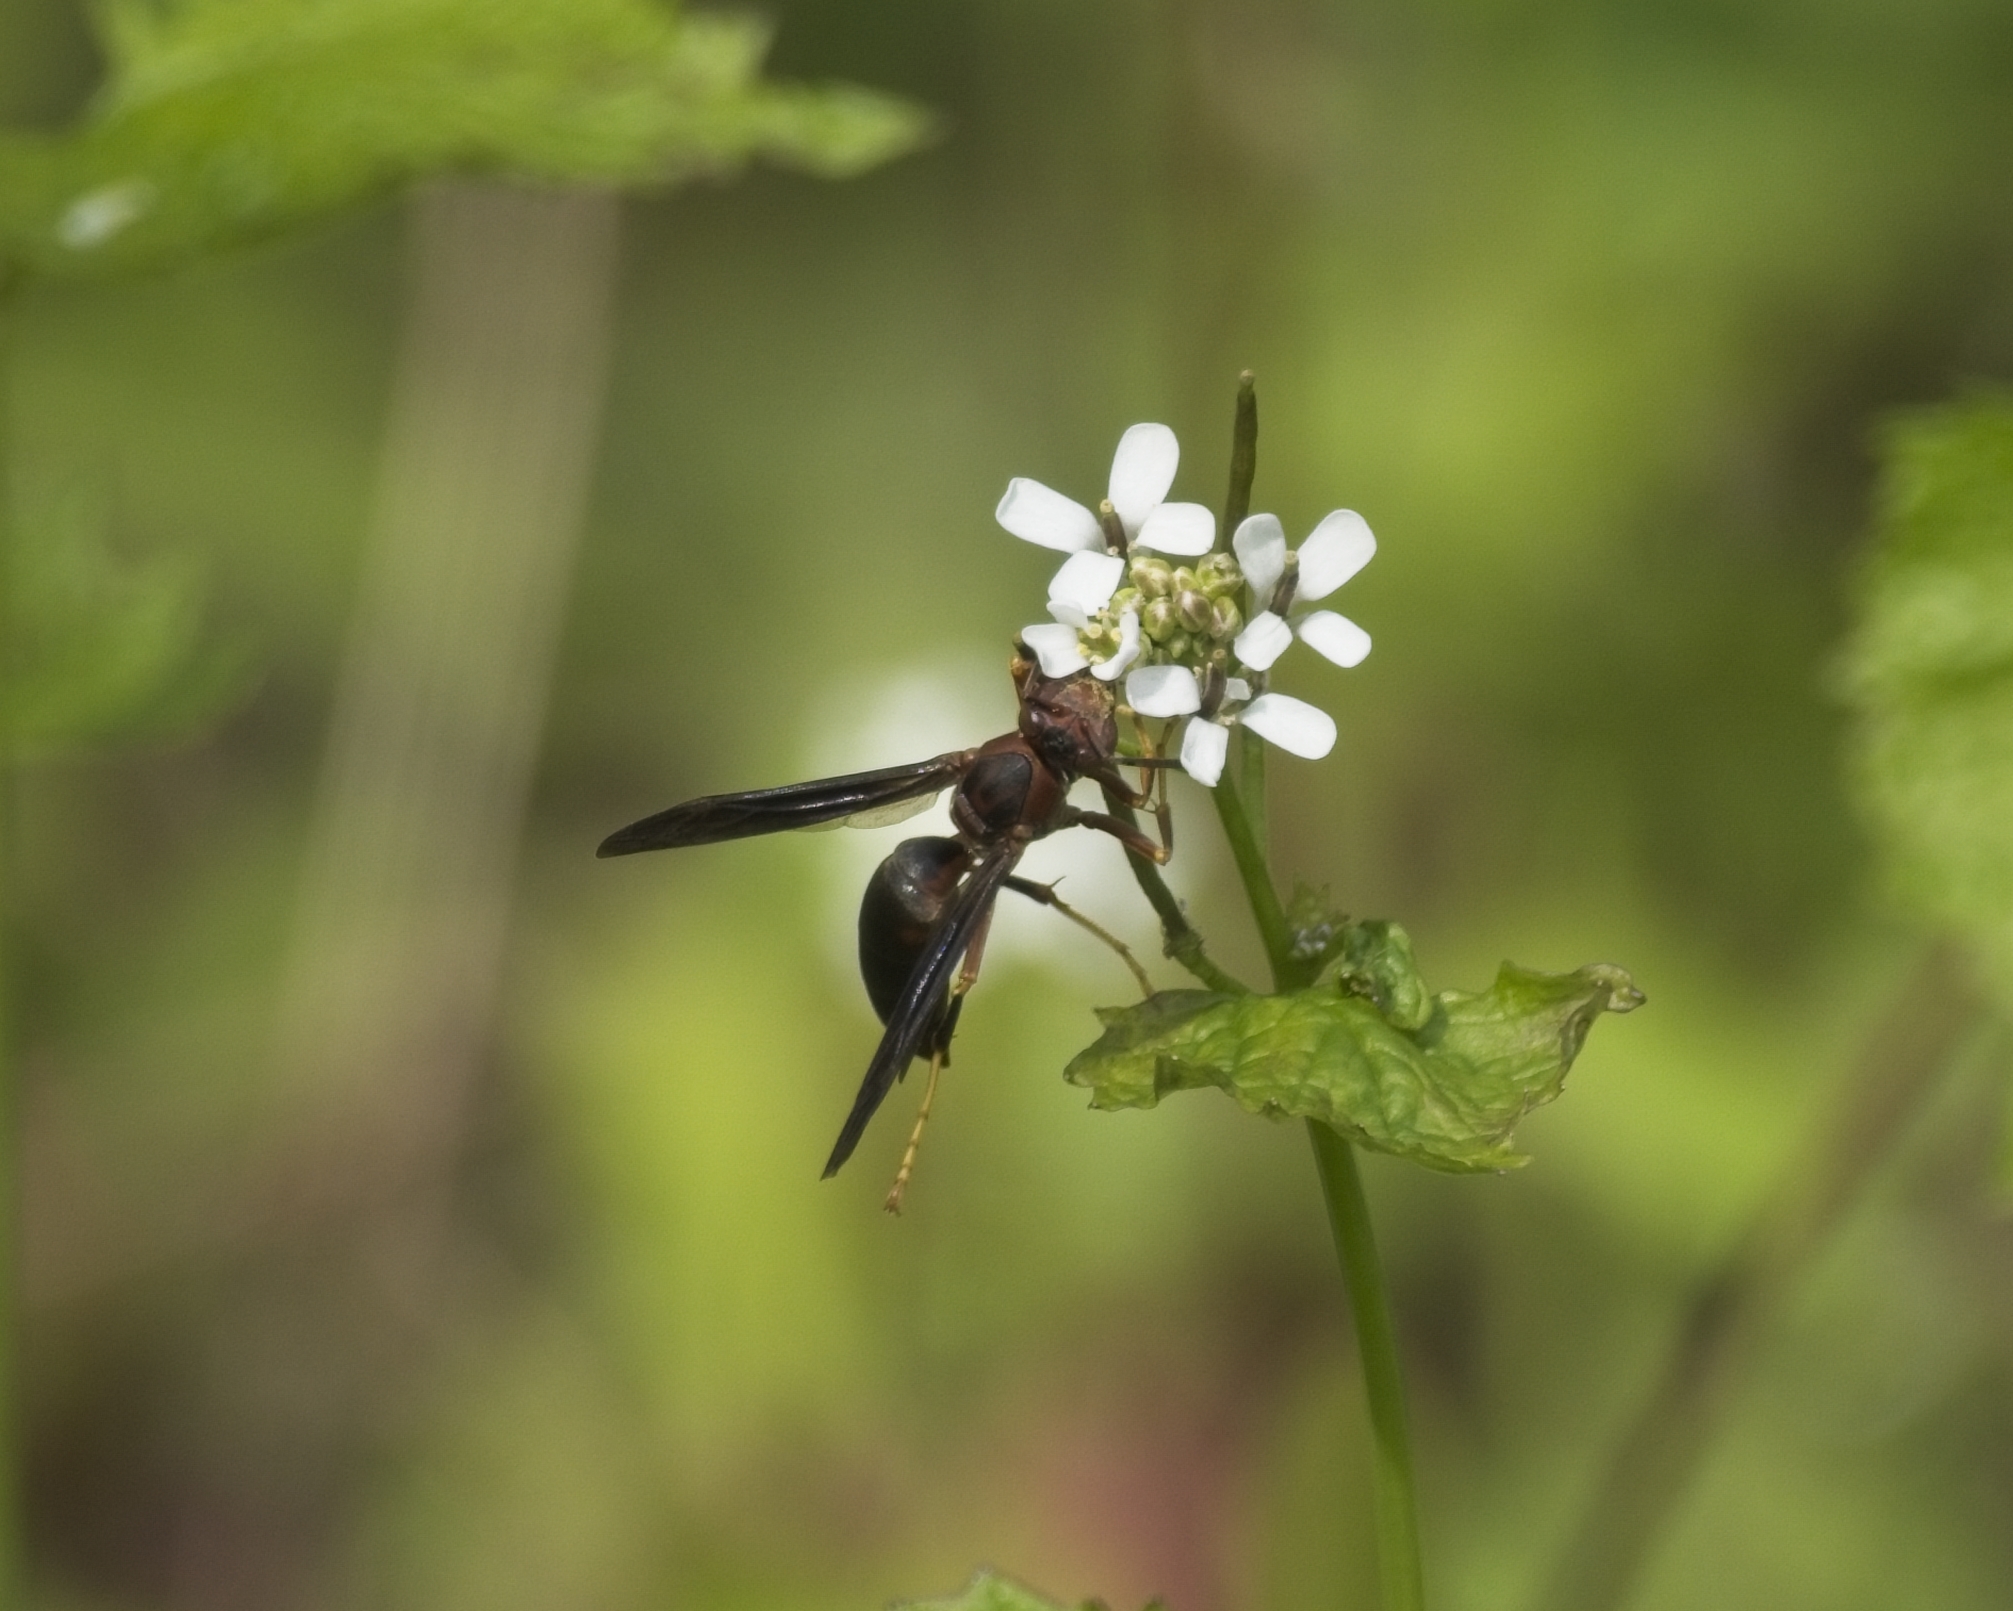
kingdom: Animalia
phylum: Arthropoda
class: Insecta
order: Hymenoptera
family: Eumenidae
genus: Polistes
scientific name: Polistes metricus
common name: Metric paper wasp
